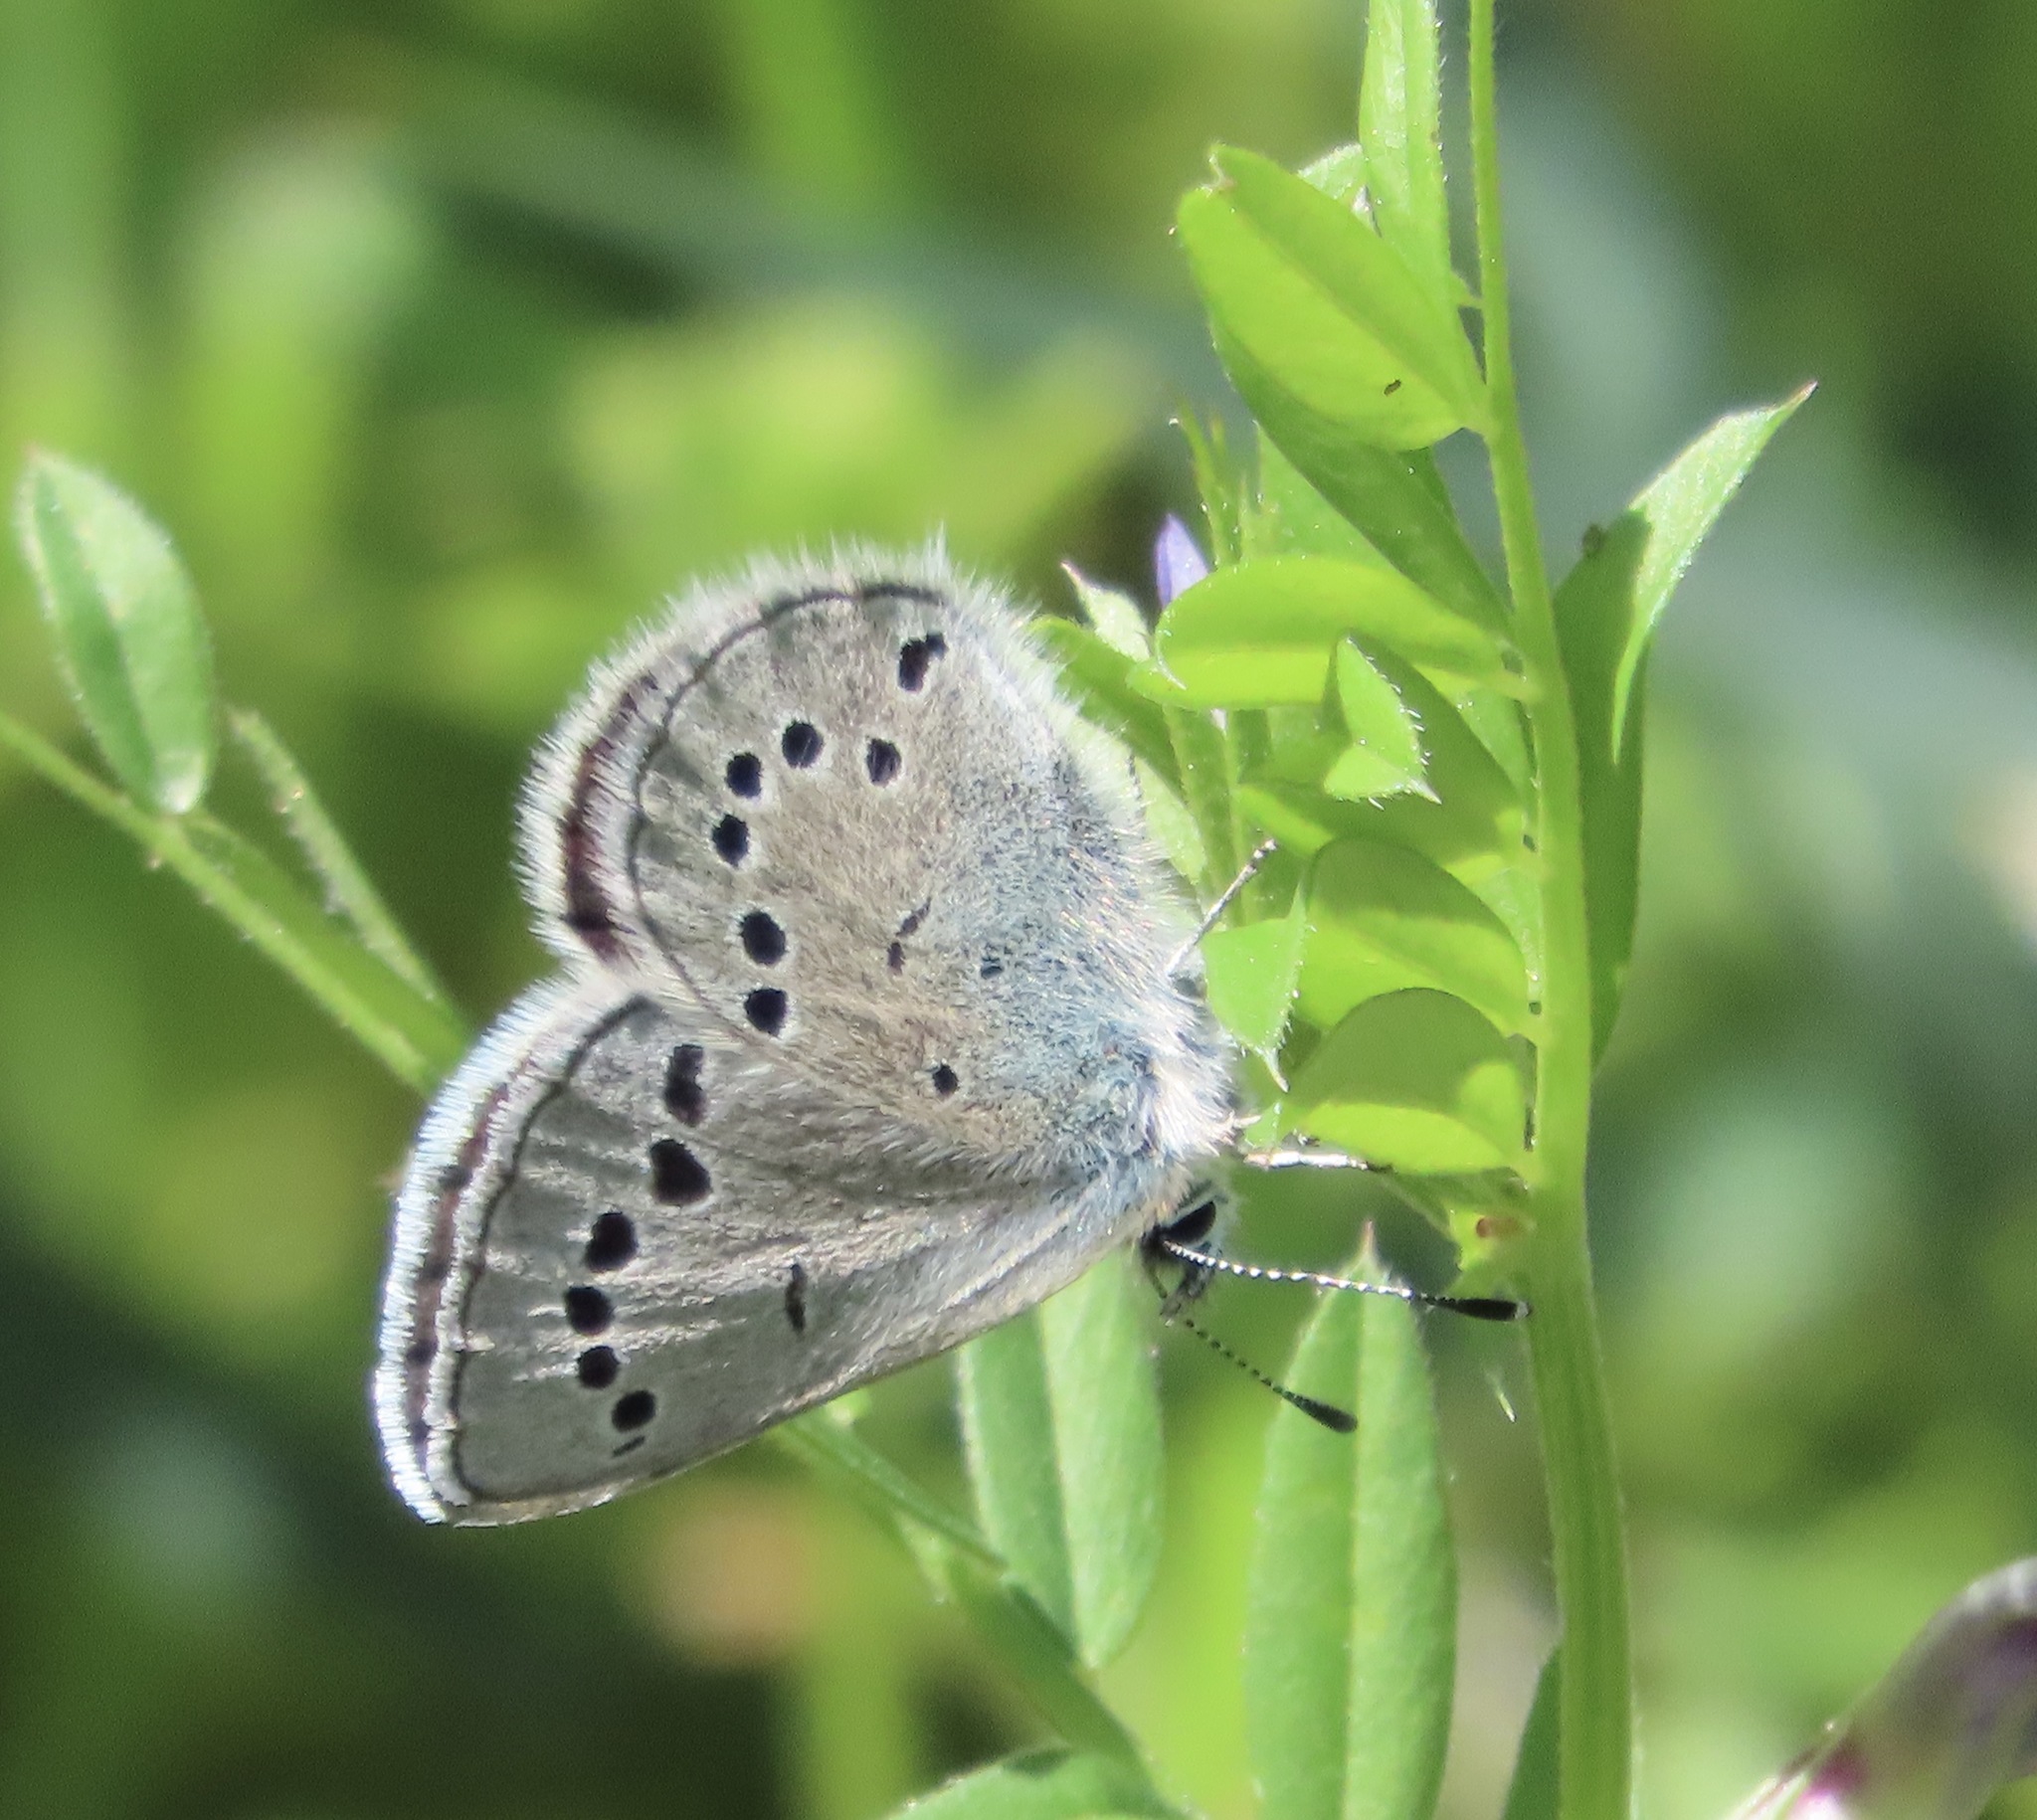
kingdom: Animalia
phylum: Arthropoda
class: Insecta
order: Lepidoptera
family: Lycaenidae
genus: Glaucopsyche
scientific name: Glaucopsyche lygdamus
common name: Silvery blue
